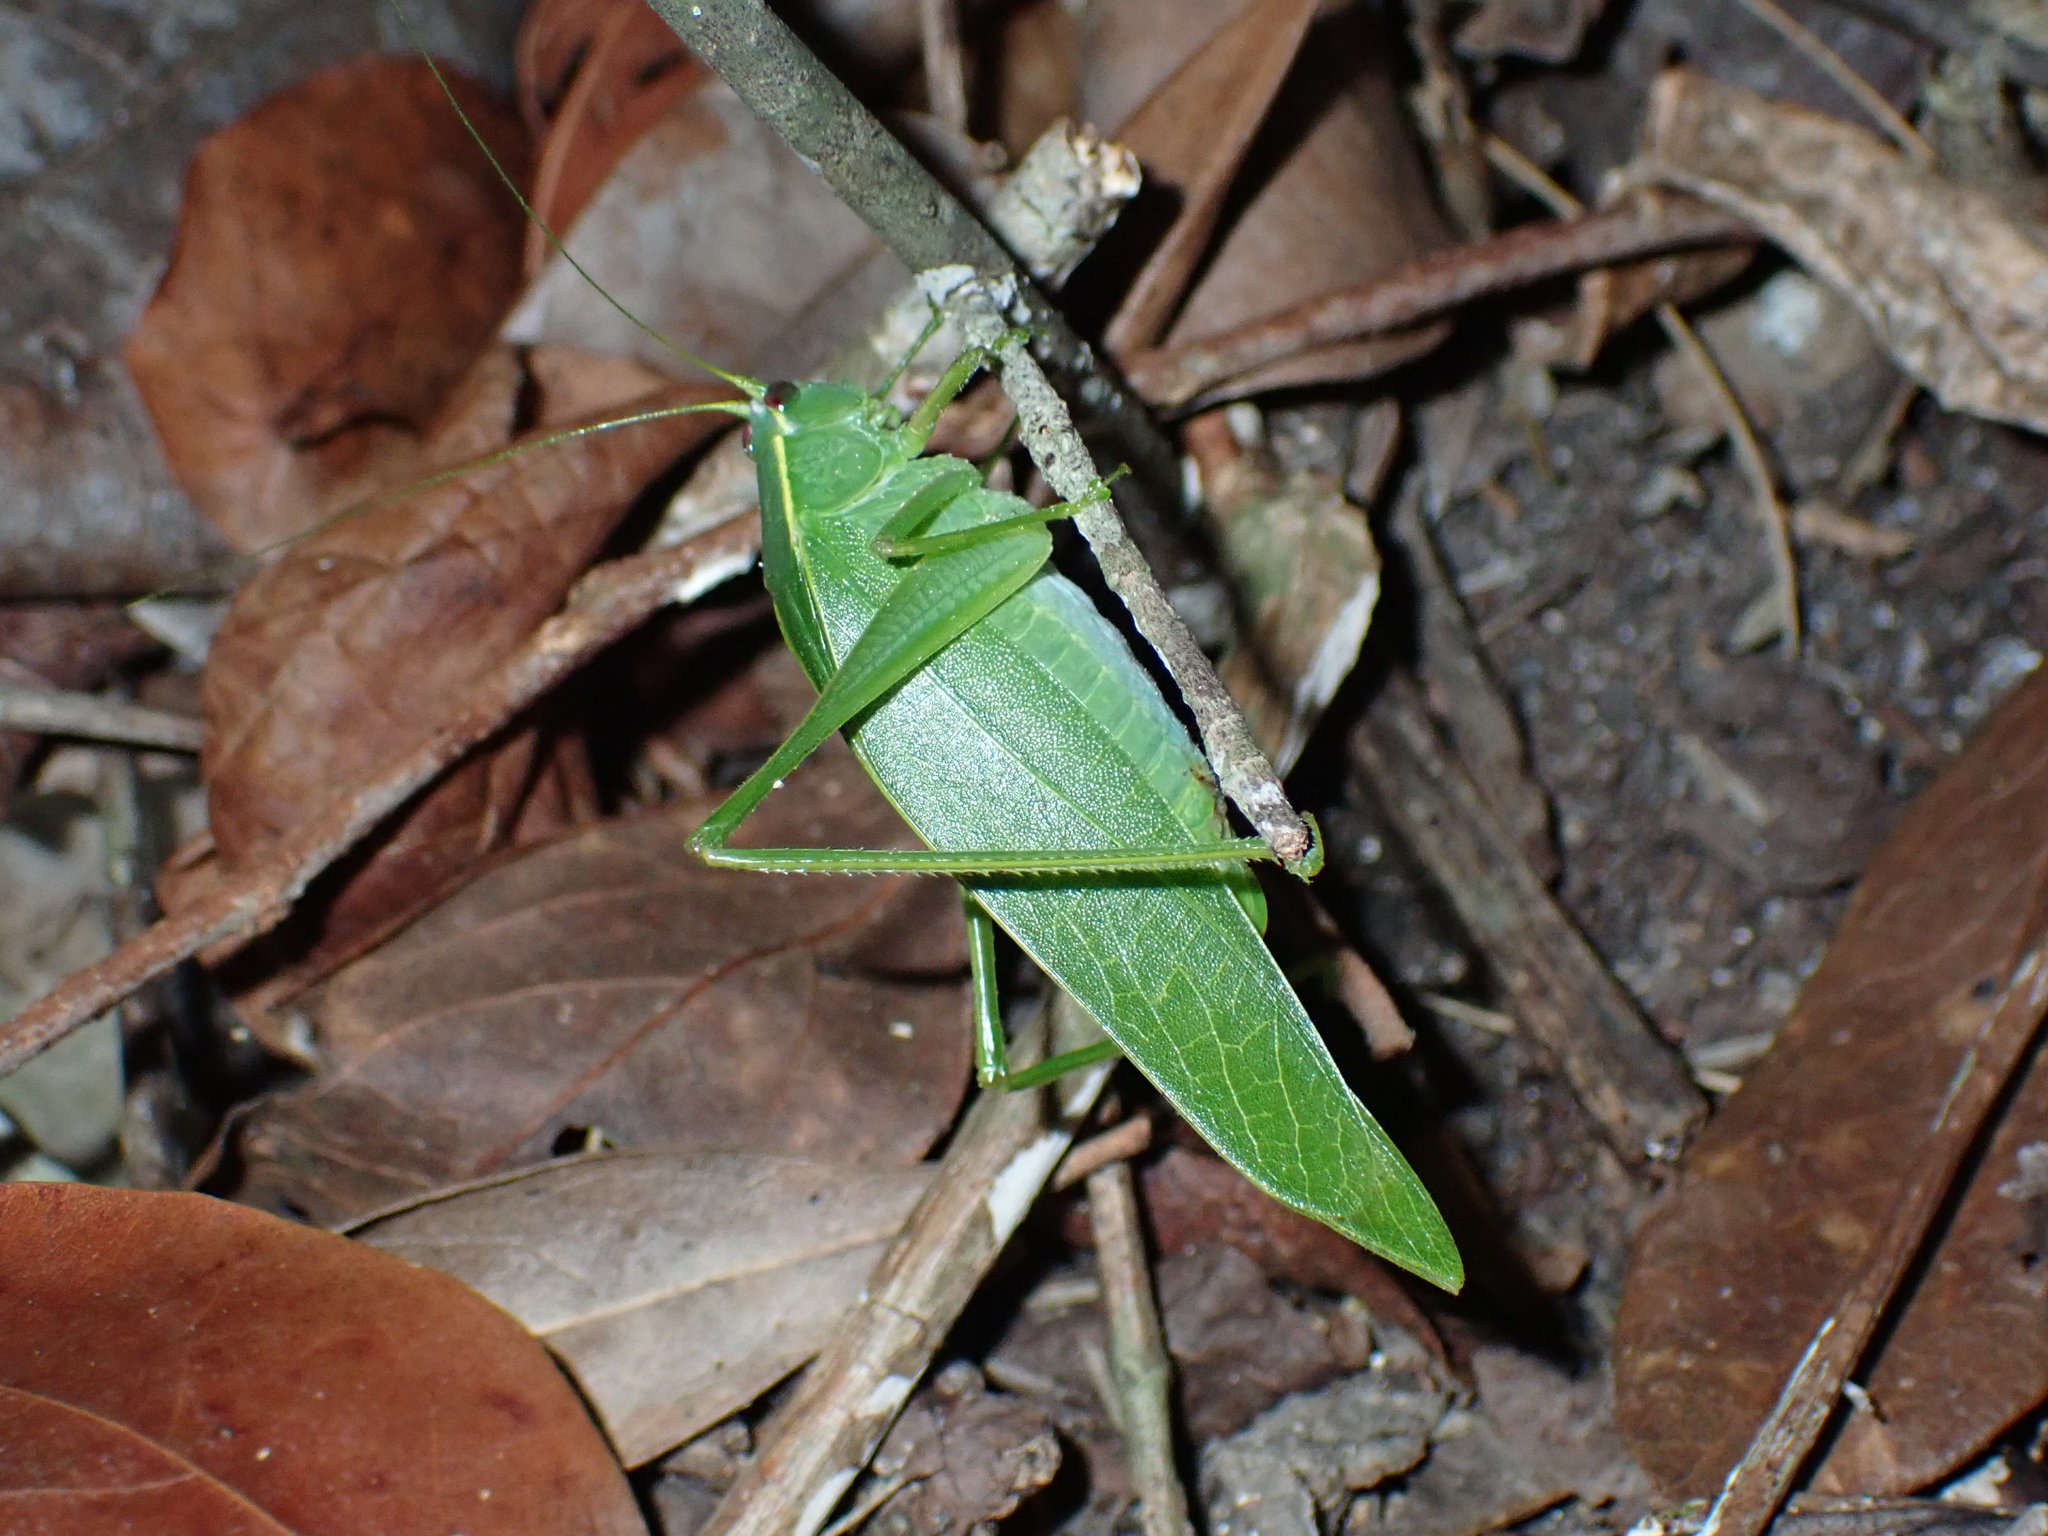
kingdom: Animalia
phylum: Arthropoda
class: Insecta
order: Orthoptera
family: Tettigoniidae
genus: Chloroscirtus
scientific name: Chloroscirtus forcipatus
